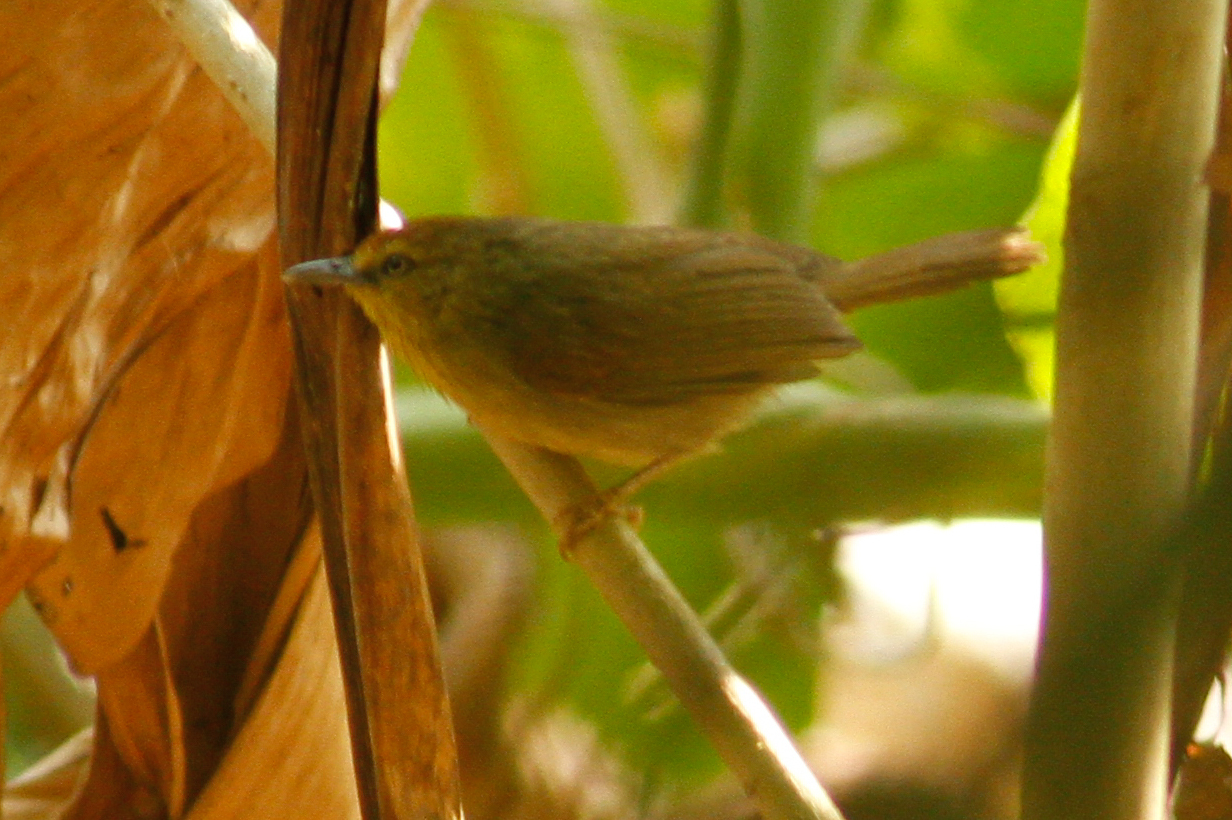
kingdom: Animalia
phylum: Chordata
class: Aves
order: Passeriformes
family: Timaliidae
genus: Macronus
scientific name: Macronus gularis
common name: Striped tit-babbler
